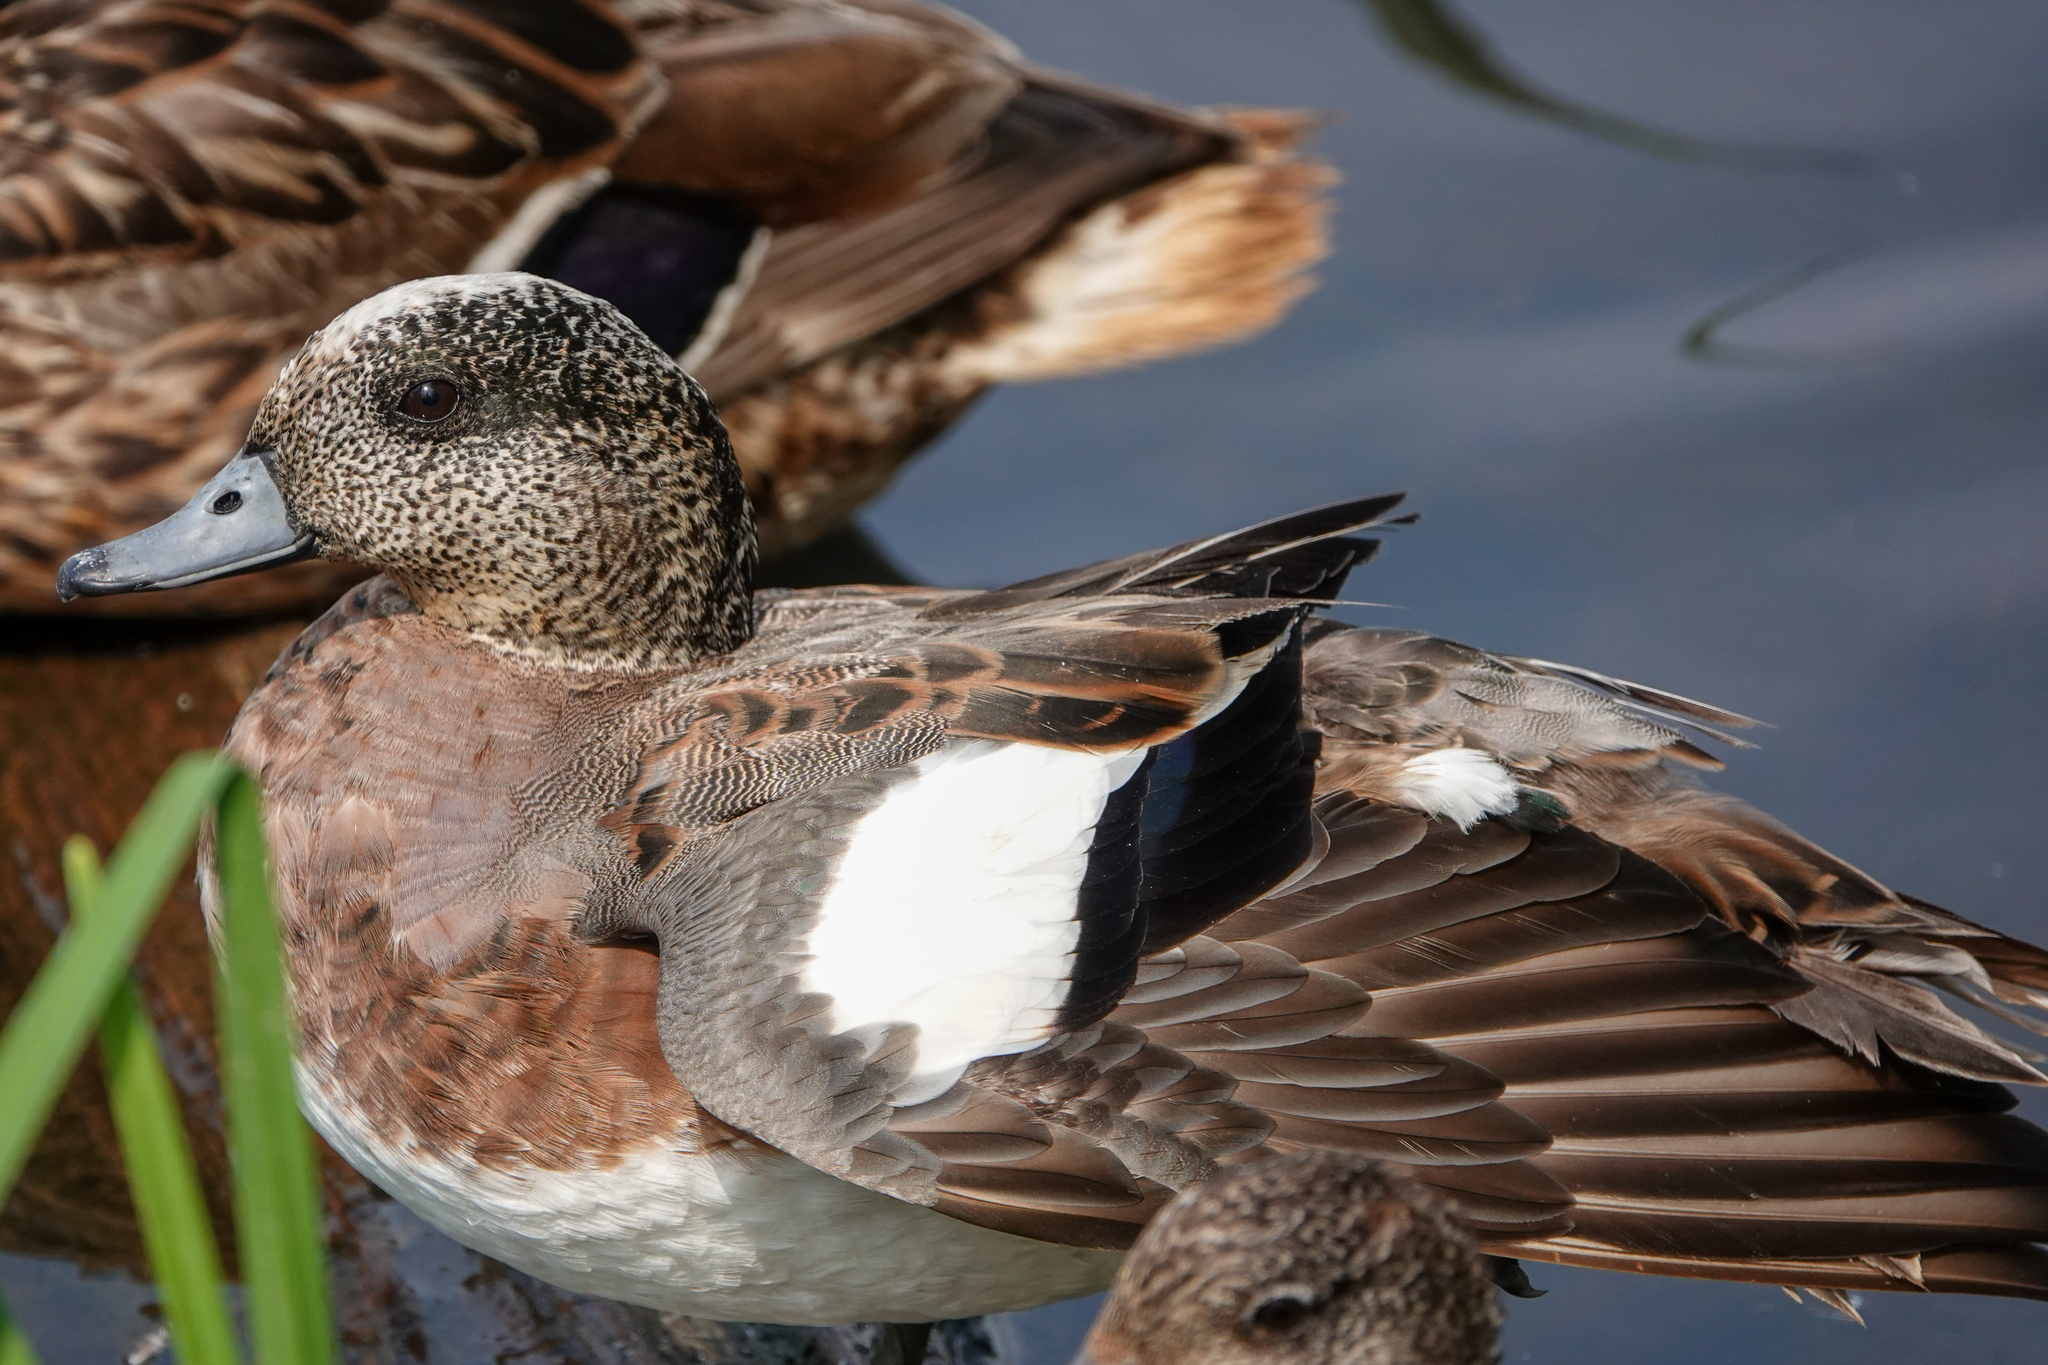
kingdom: Animalia
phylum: Chordata
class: Aves
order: Anseriformes
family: Anatidae
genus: Mareca
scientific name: Mareca americana
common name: American wigeon
